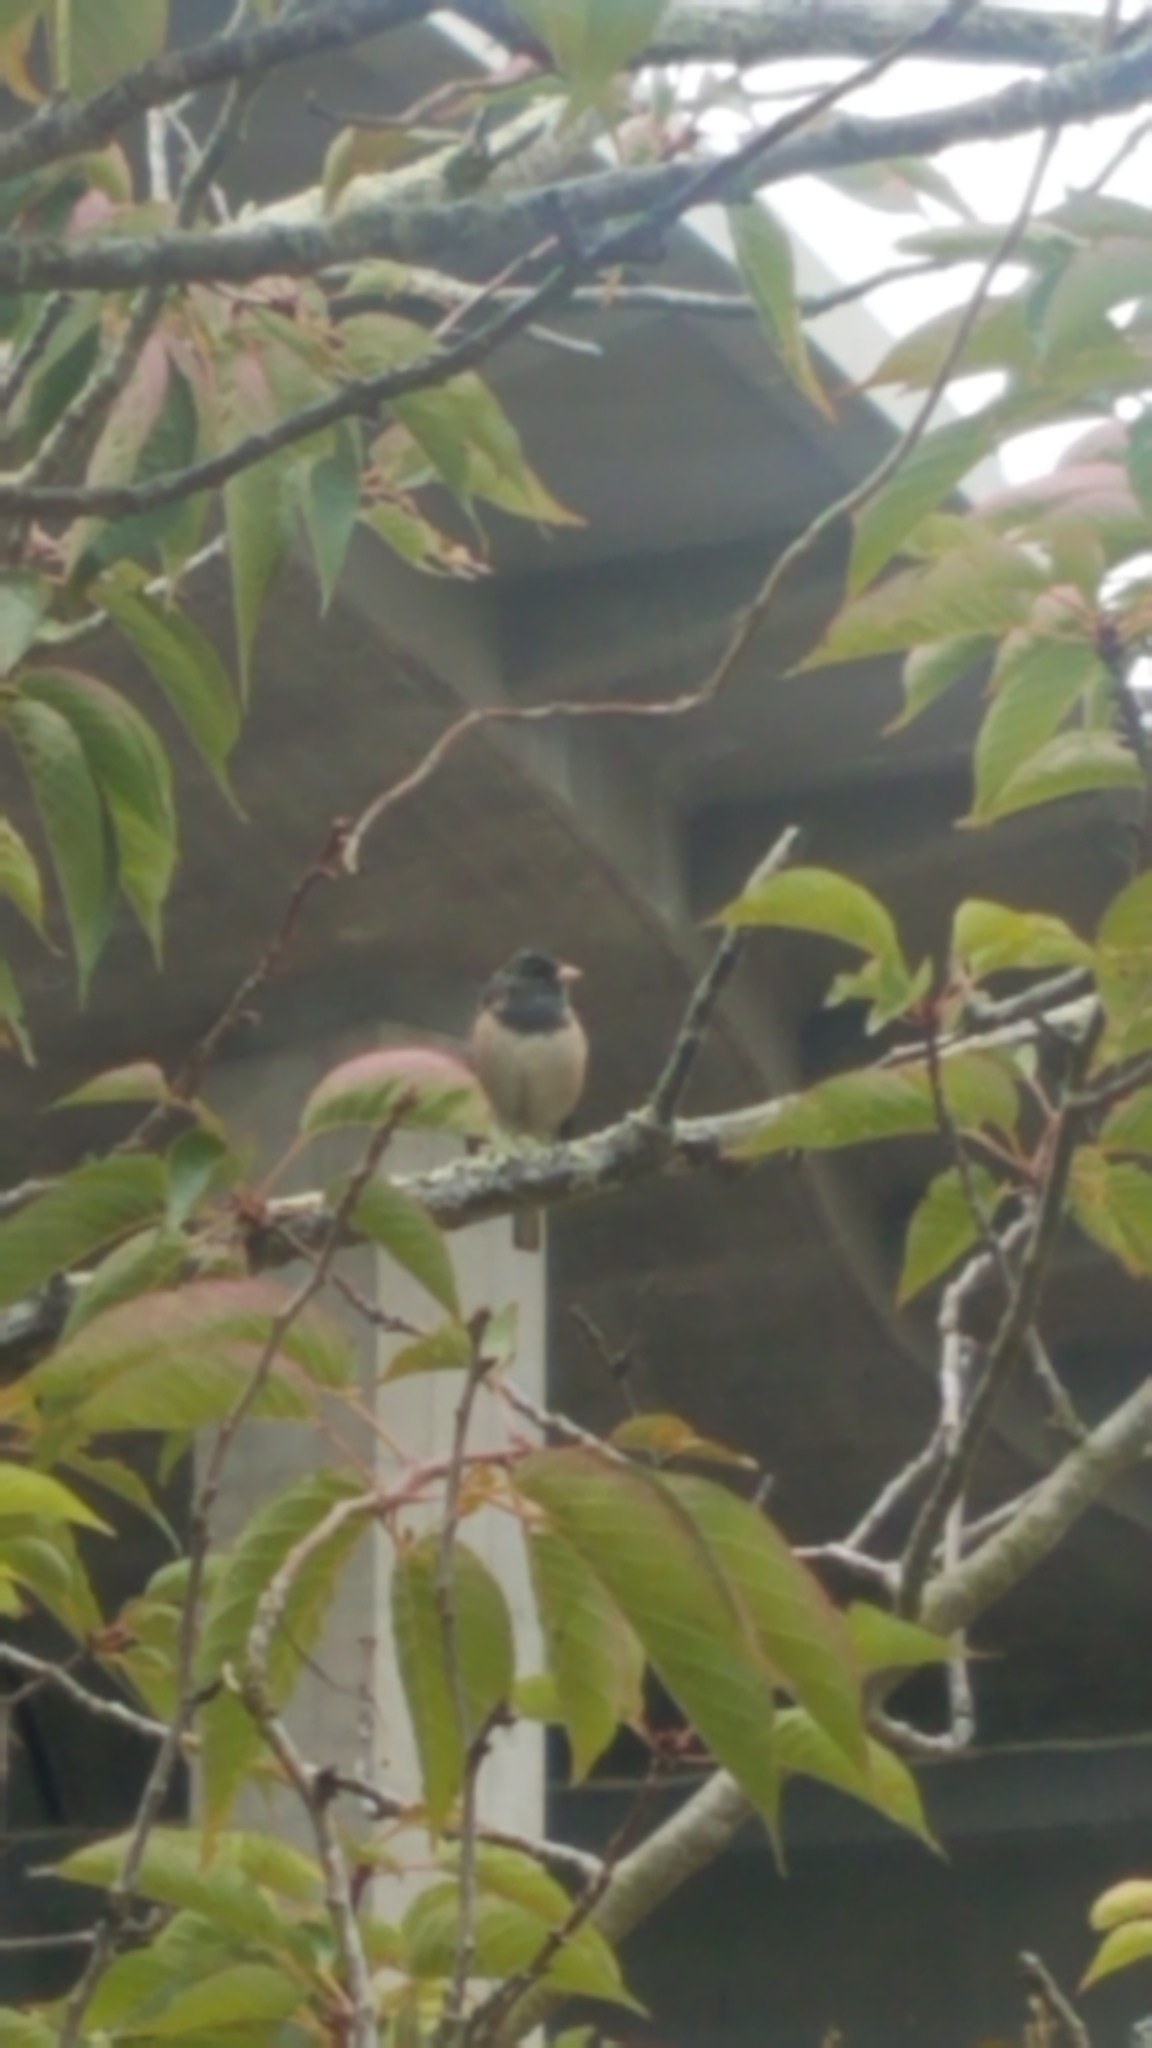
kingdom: Animalia
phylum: Chordata
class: Aves
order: Passeriformes
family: Passerellidae
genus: Junco
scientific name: Junco hyemalis
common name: Dark-eyed junco
